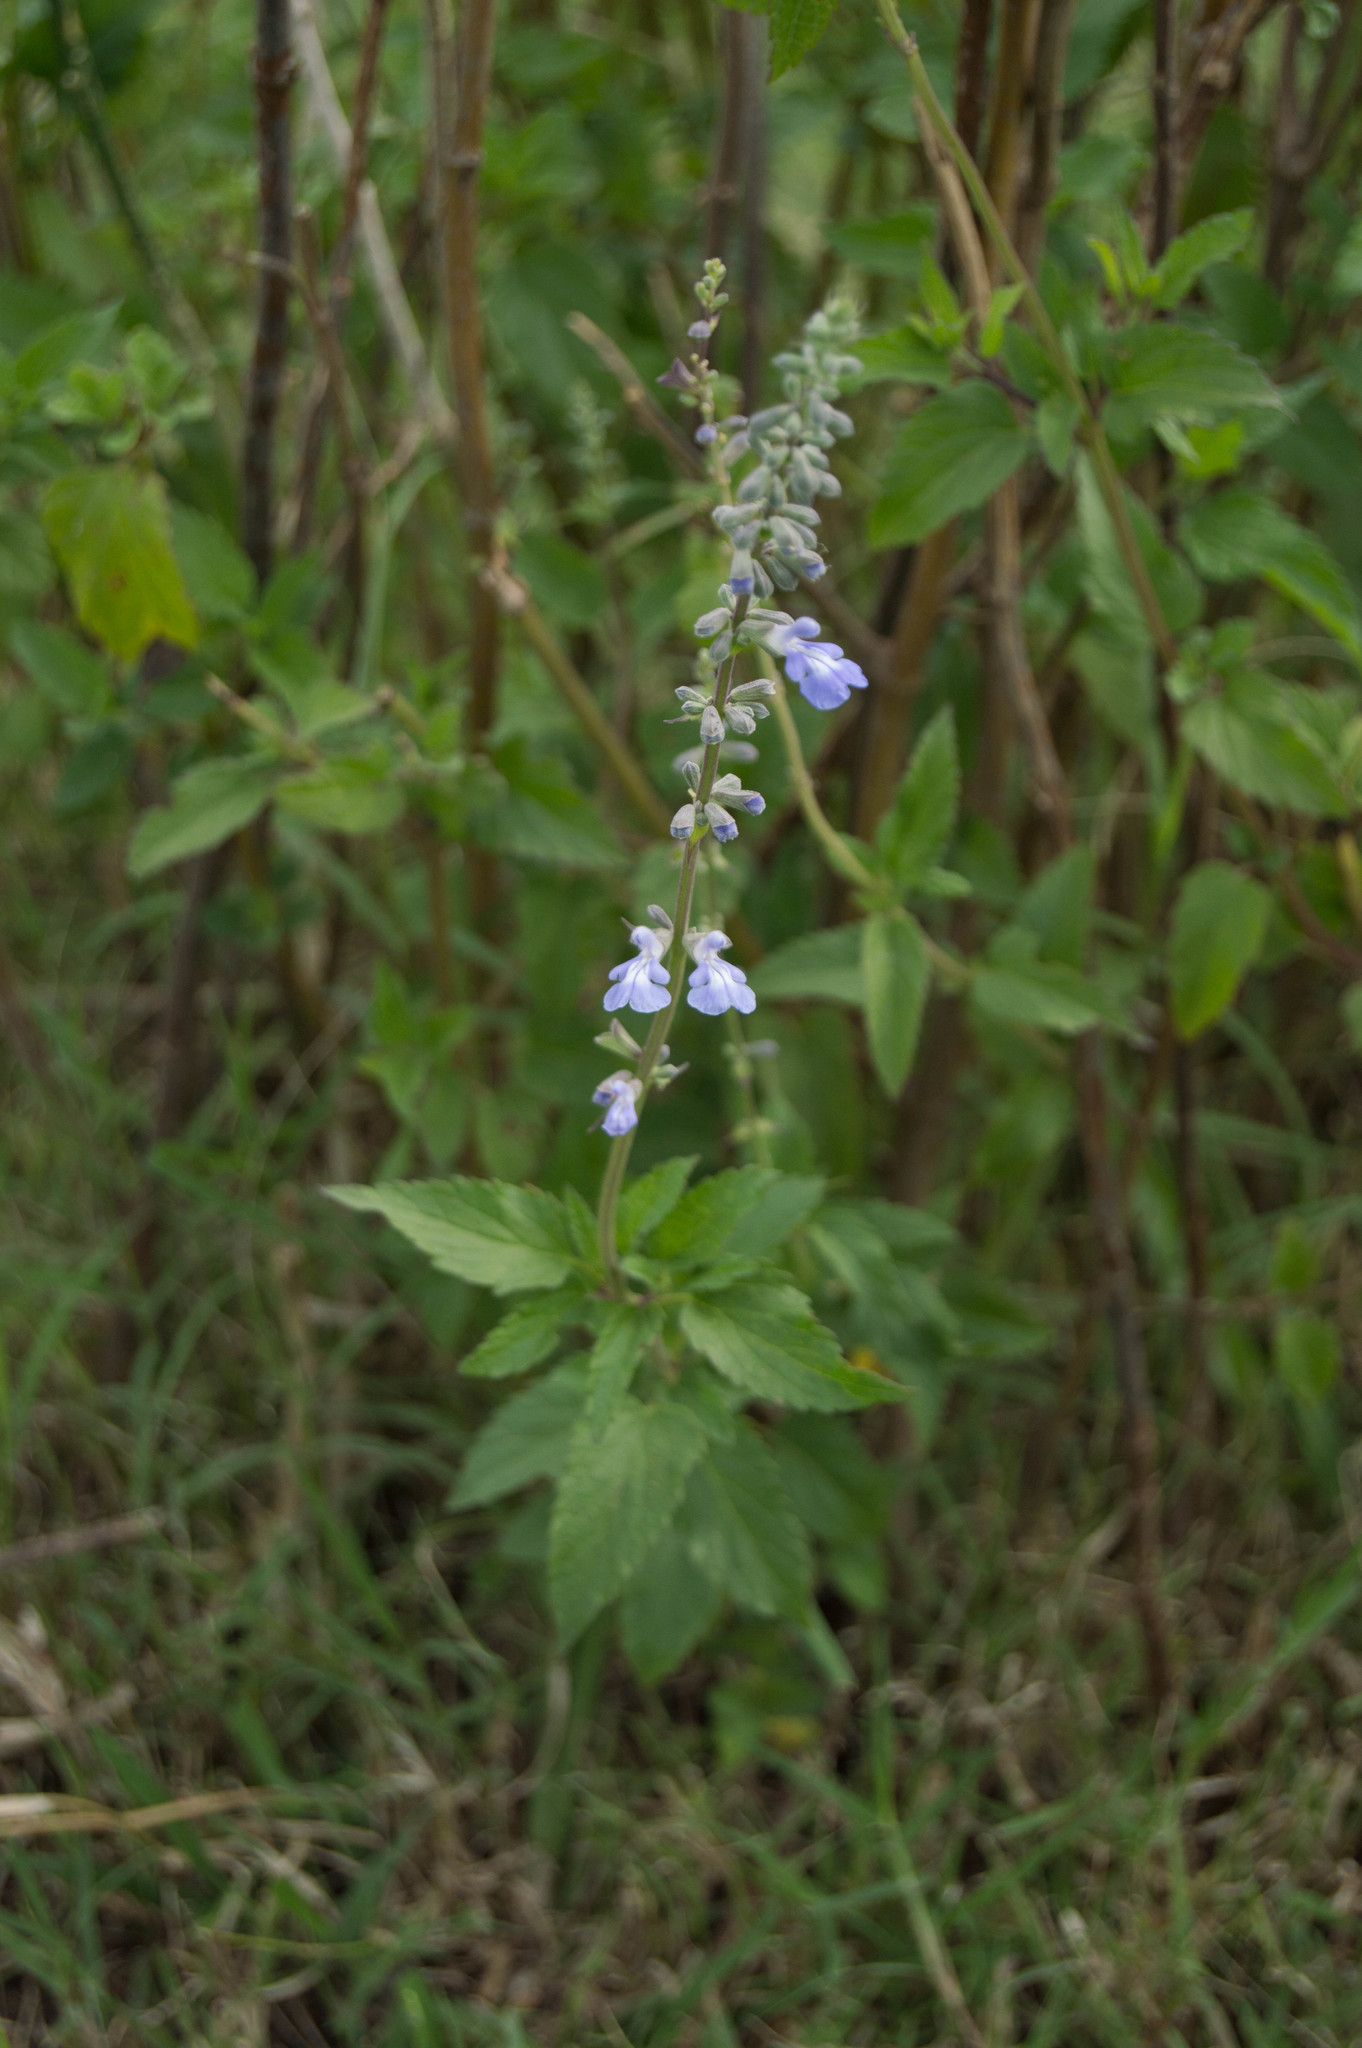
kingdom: Plantae
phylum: Tracheophyta
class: Magnoliopsida
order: Lamiales
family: Lamiaceae
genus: Salvia
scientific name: Salvia pallida
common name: Pale sage
